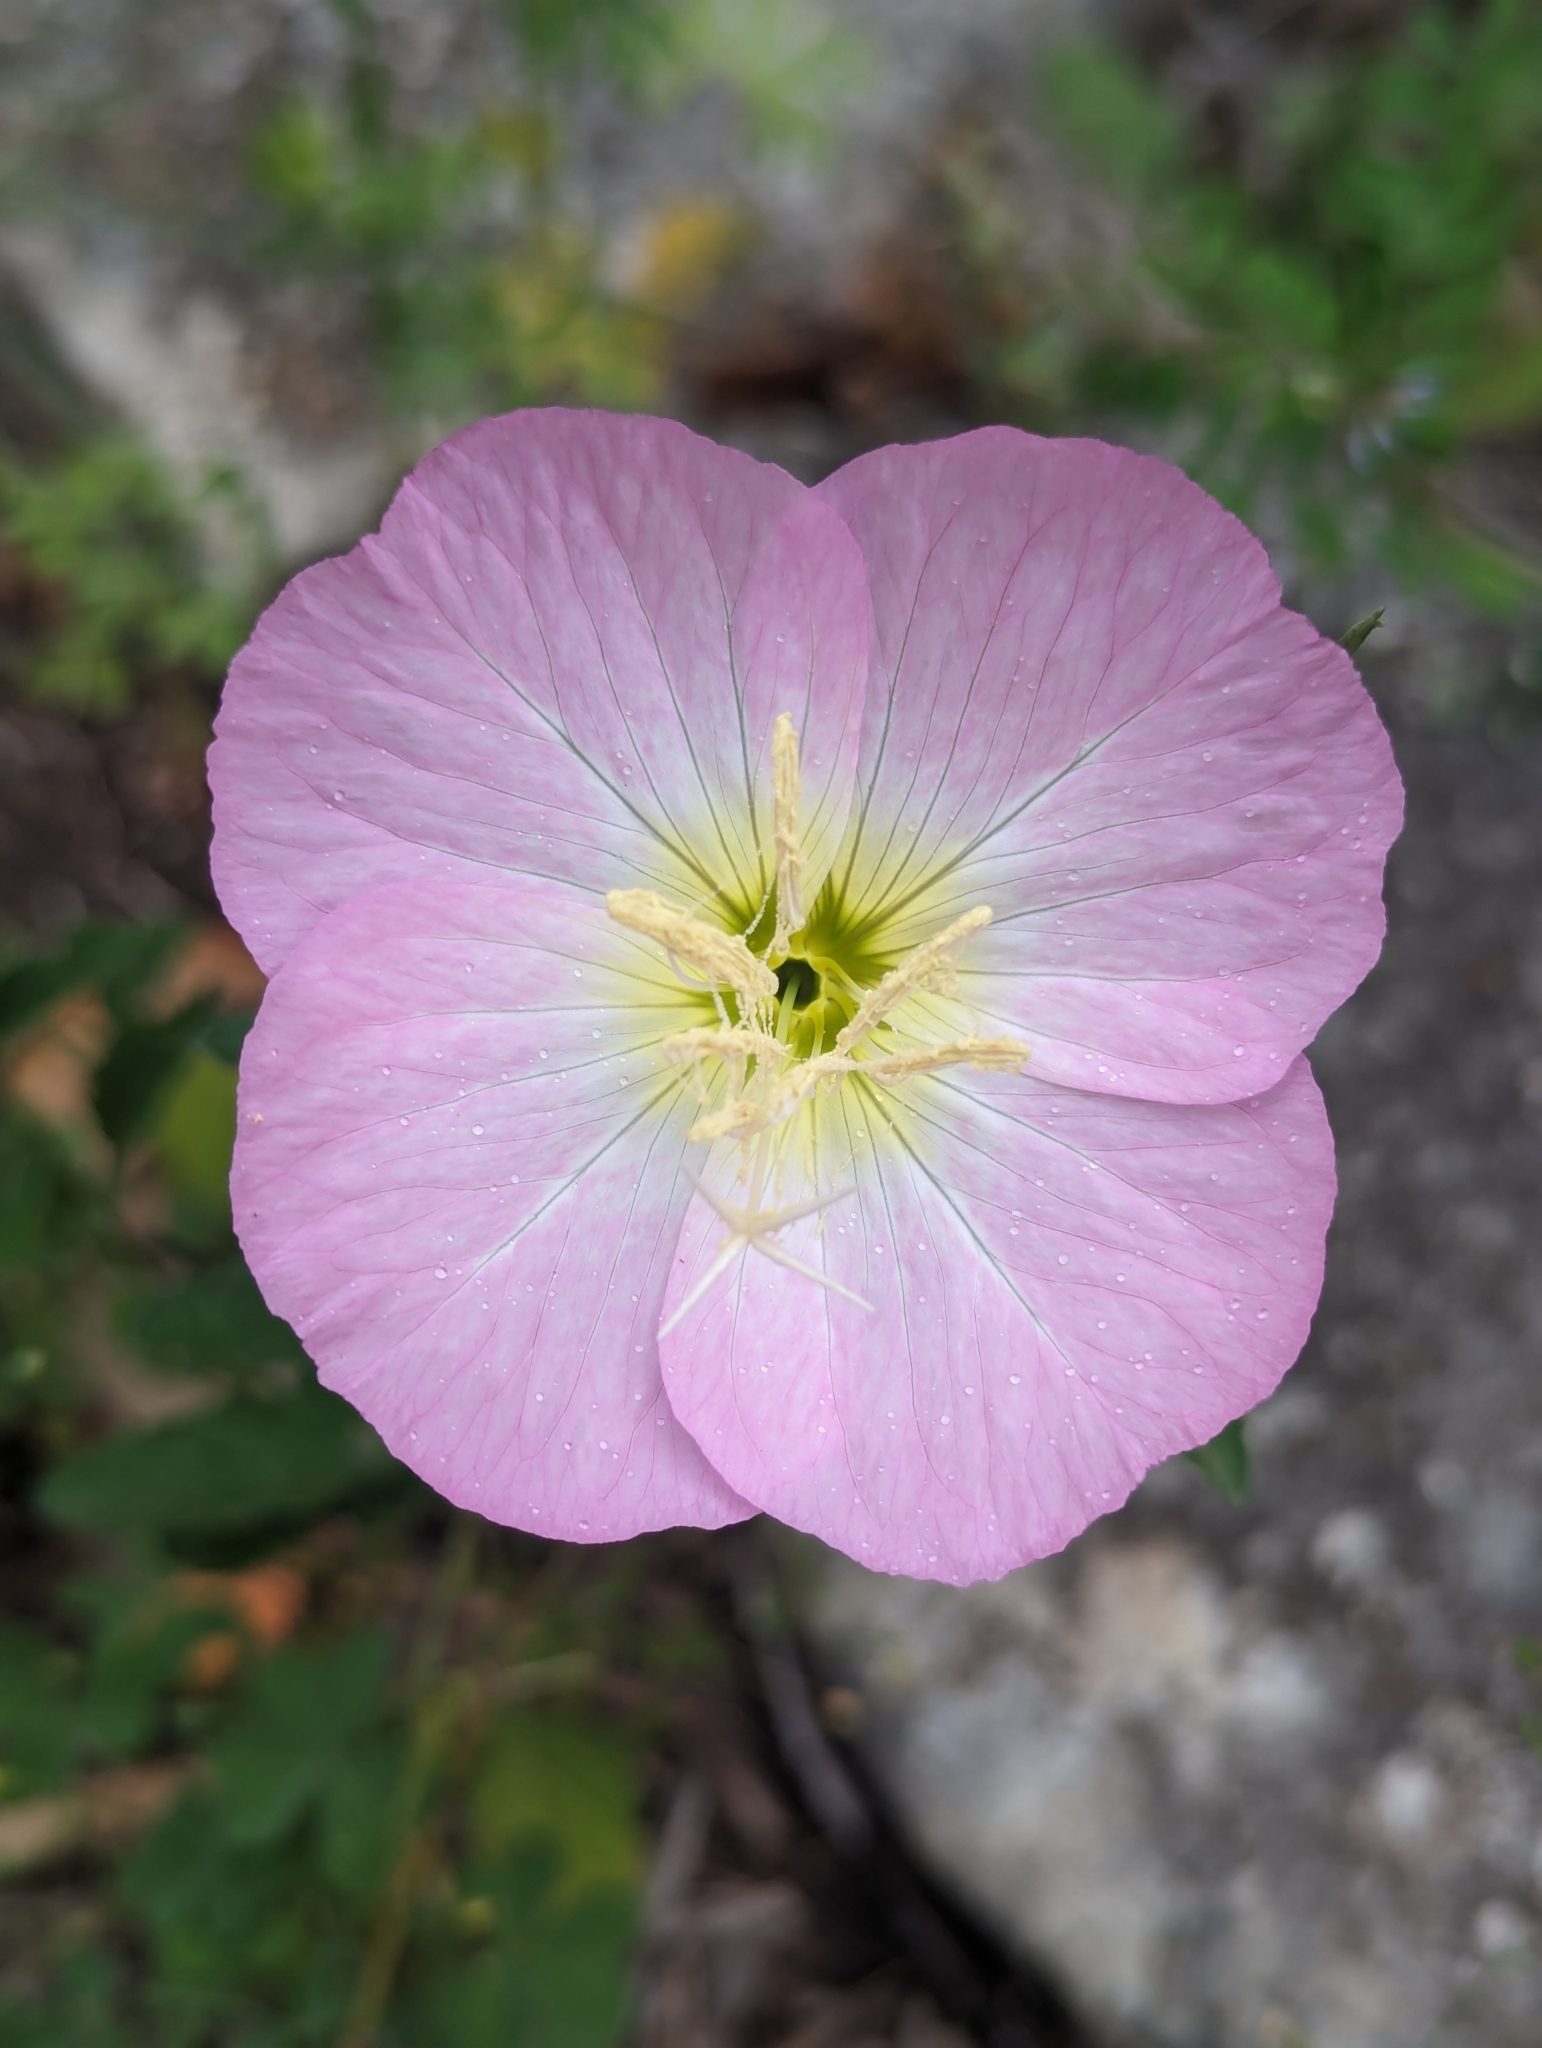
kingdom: Plantae
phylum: Tracheophyta
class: Magnoliopsida
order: Myrtales
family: Onagraceae
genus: Oenothera
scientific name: Oenothera speciosa
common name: White evening-primrose
